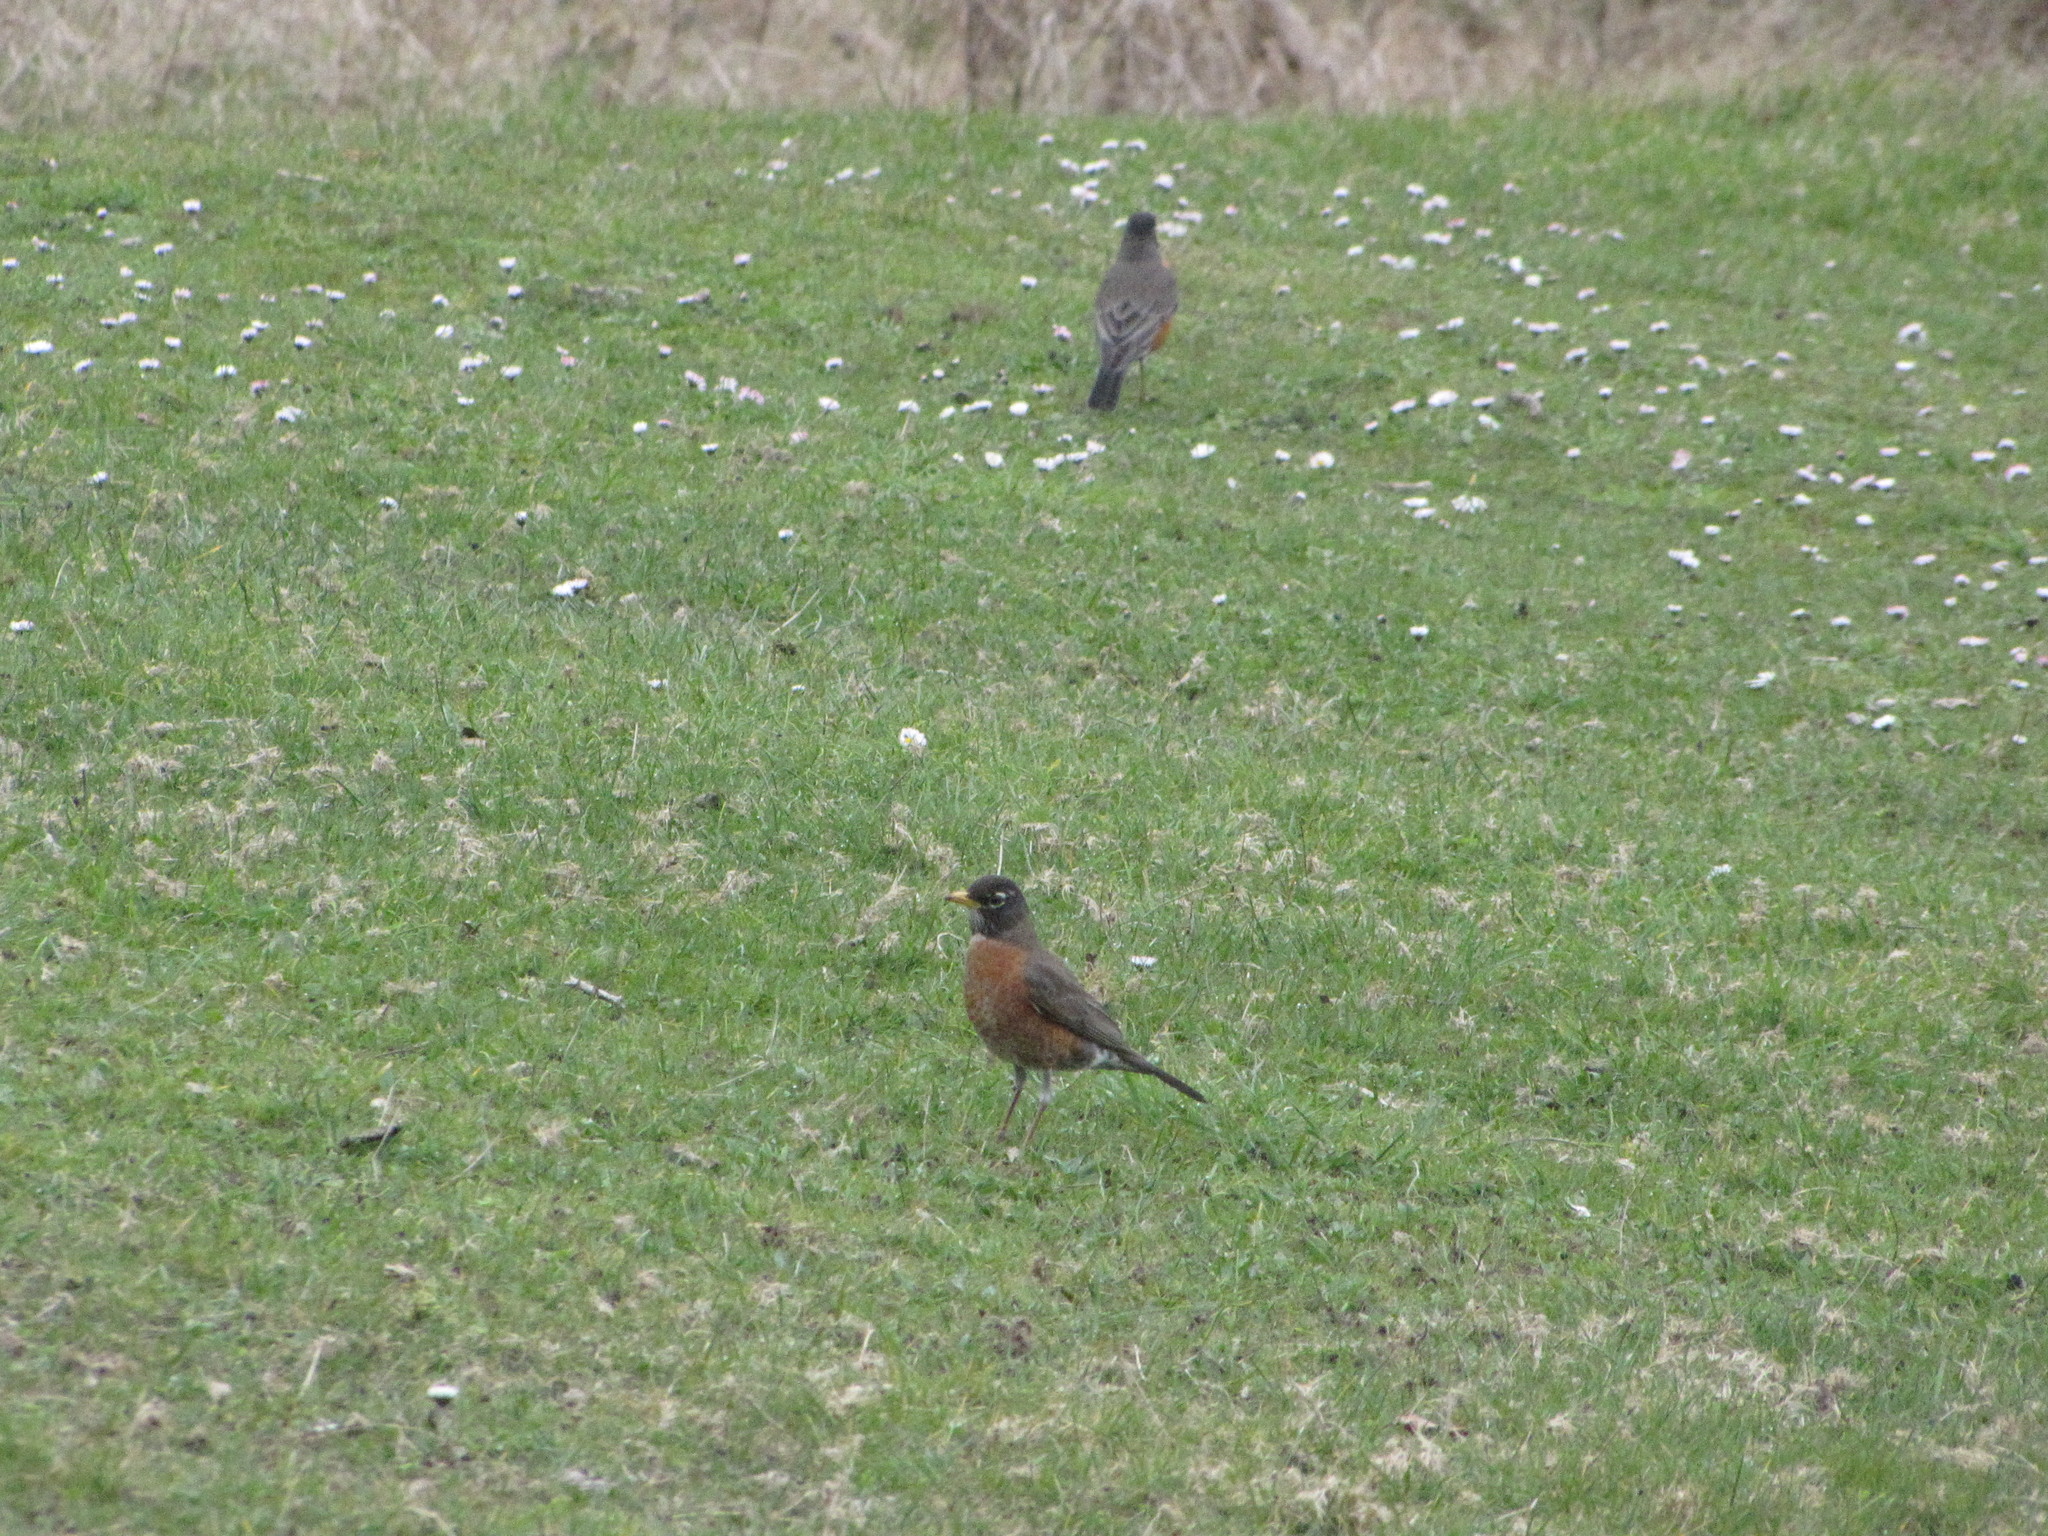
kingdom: Animalia
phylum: Chordata
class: Aves
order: Passeriformes
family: Turdidae
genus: Turdus
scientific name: Turdus migratorius
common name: American robin
